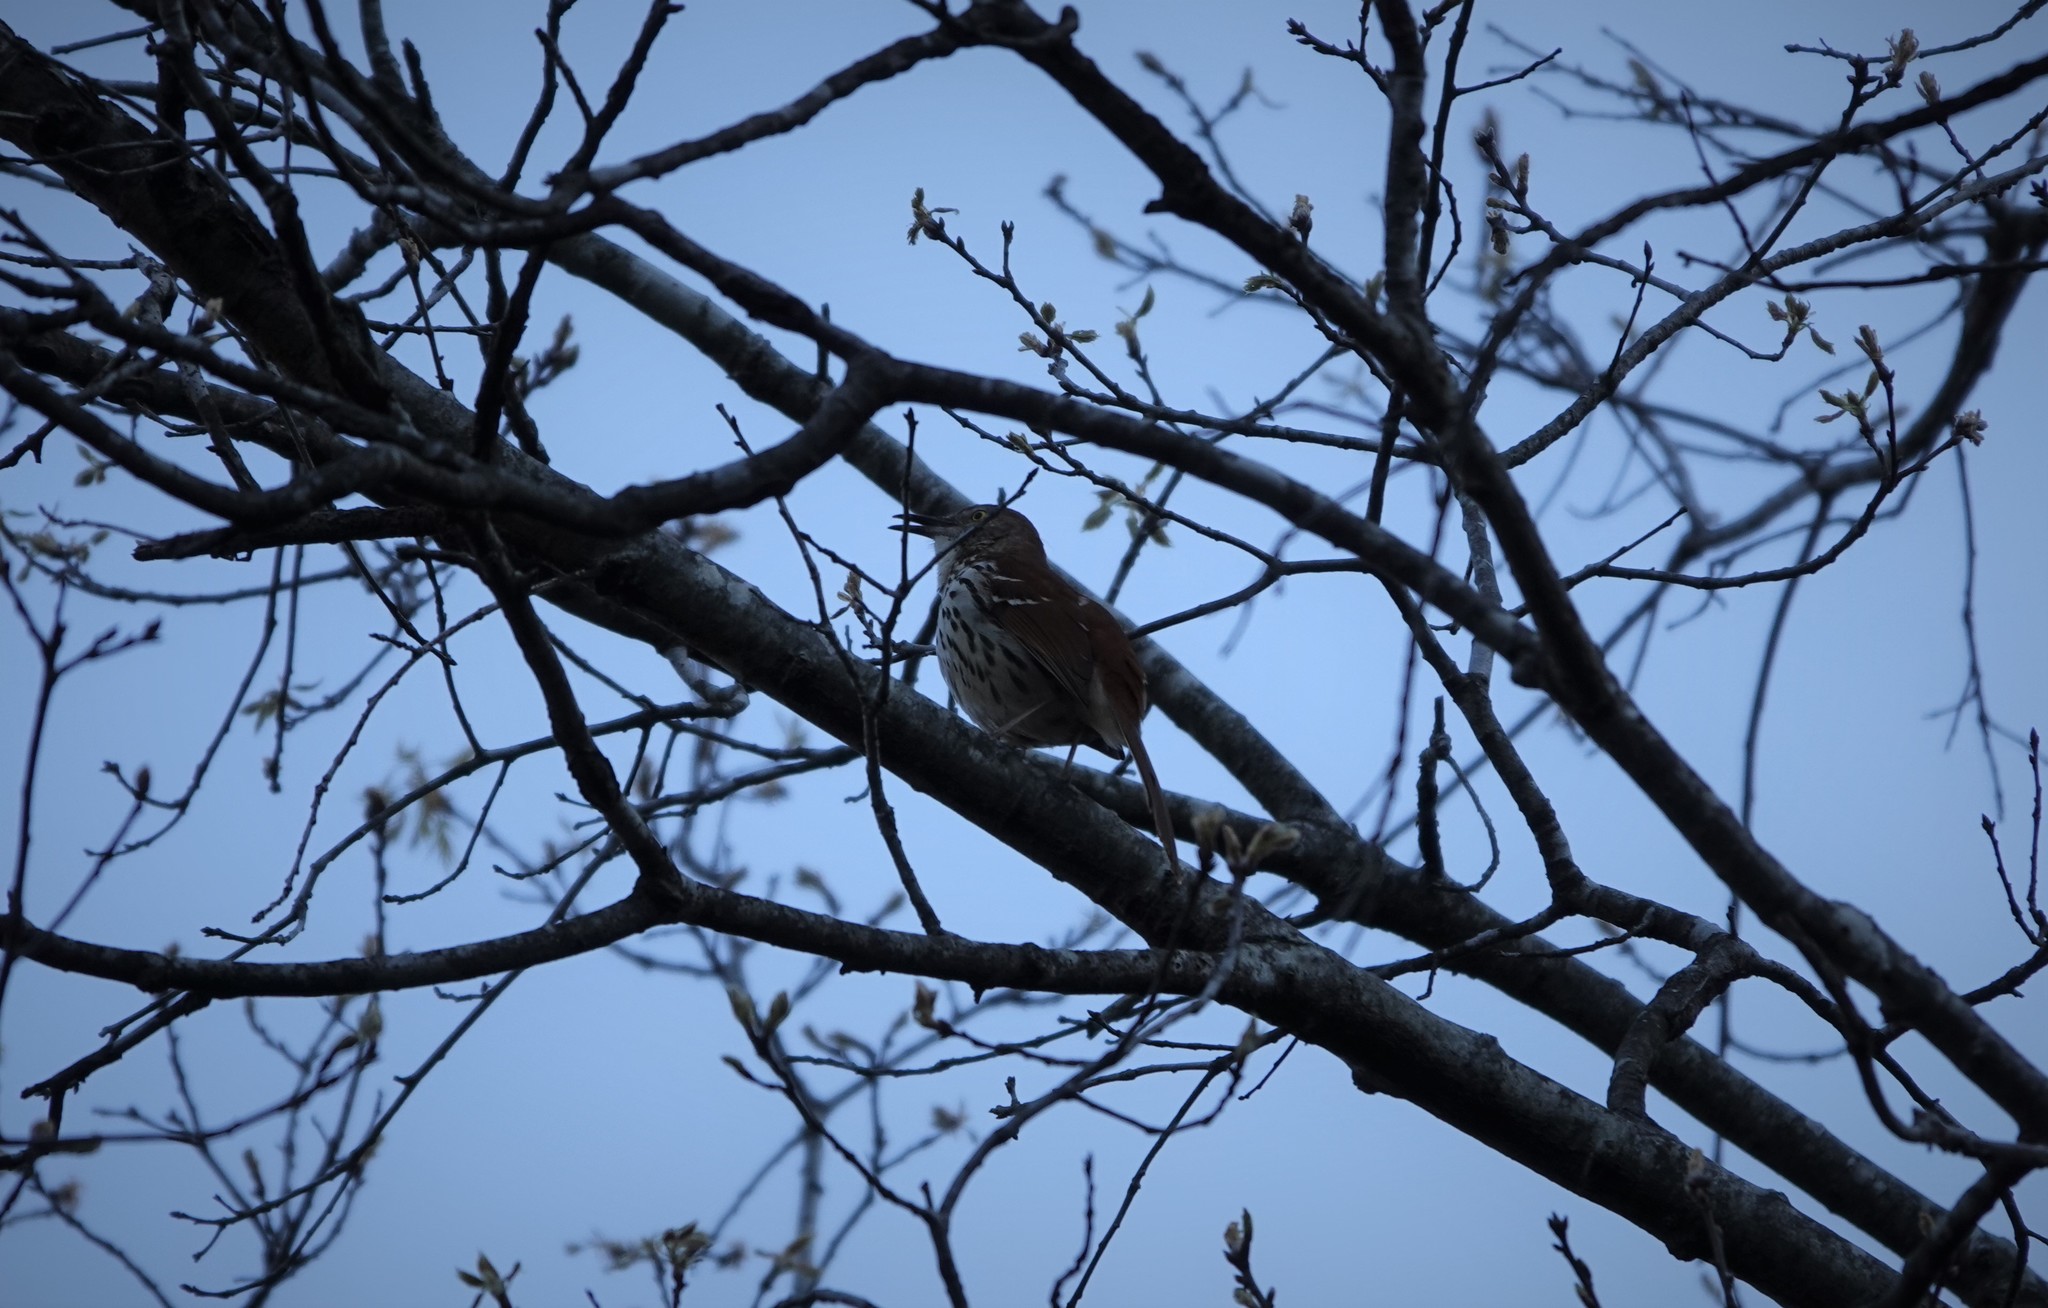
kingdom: Animalia
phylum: Chordata
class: Aves
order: Passeriformes
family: Mimidae
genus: Toxostoma
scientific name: Toxostoma rufum
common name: Brown thrasher
